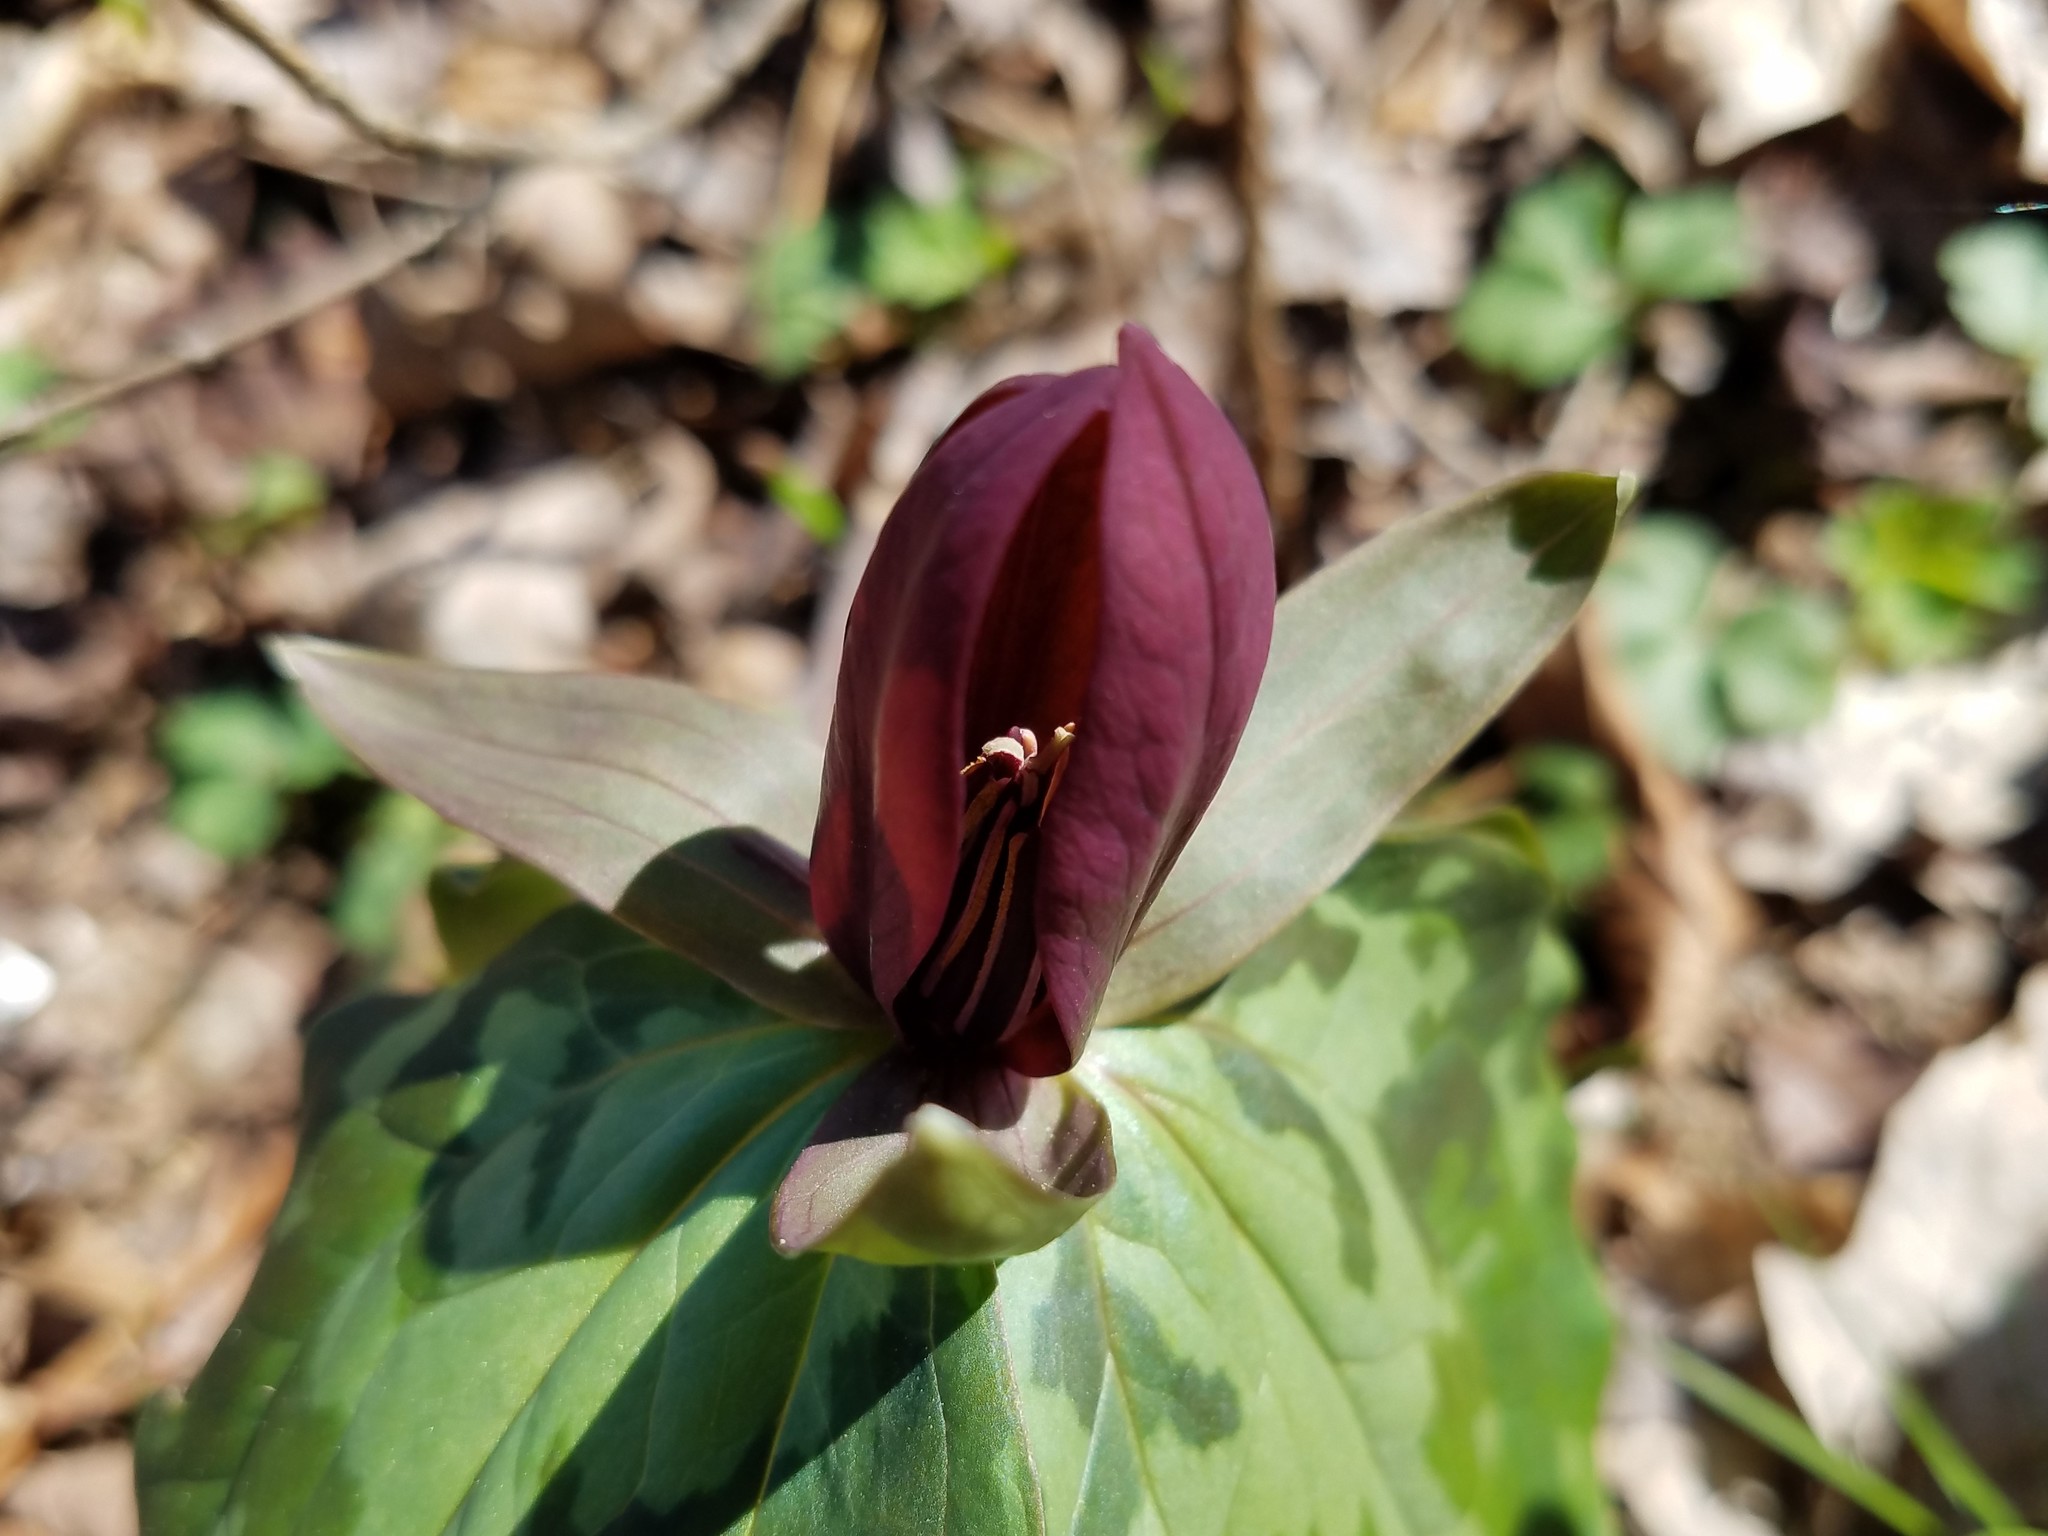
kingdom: Plantae
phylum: Tracheophyta
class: Liliopsida
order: Liliales
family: Melanthiaceae
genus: Trillium
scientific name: Trillium cuneatum
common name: Cuneate trillium
